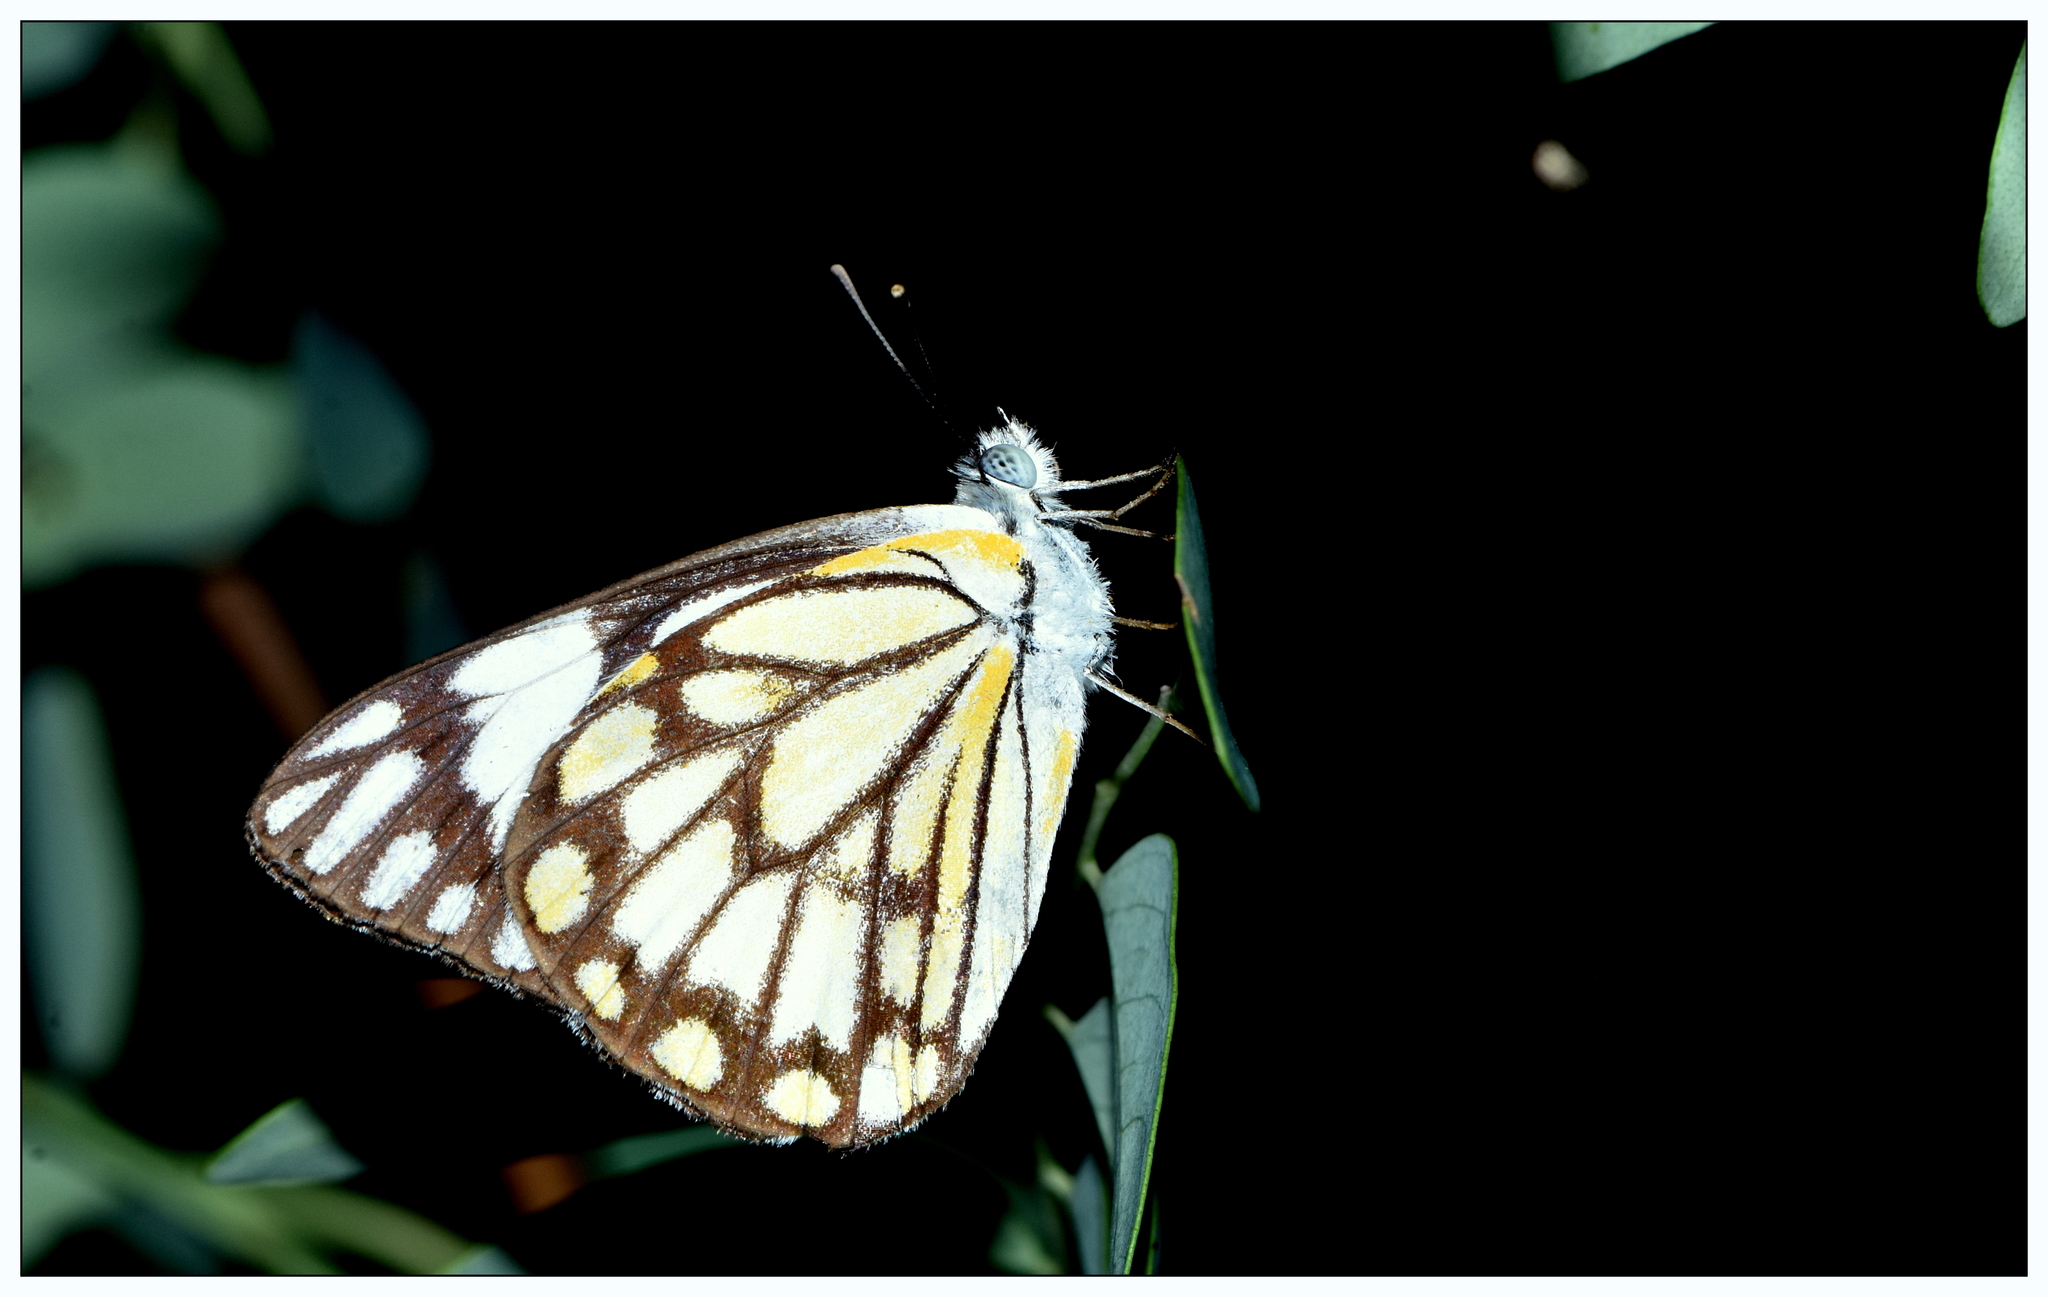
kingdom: Animalia
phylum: Arthropoda
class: Insecta
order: Lepidoptera
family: Pieridae
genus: Belenois
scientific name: Belenois aurota
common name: Brown-veined white
